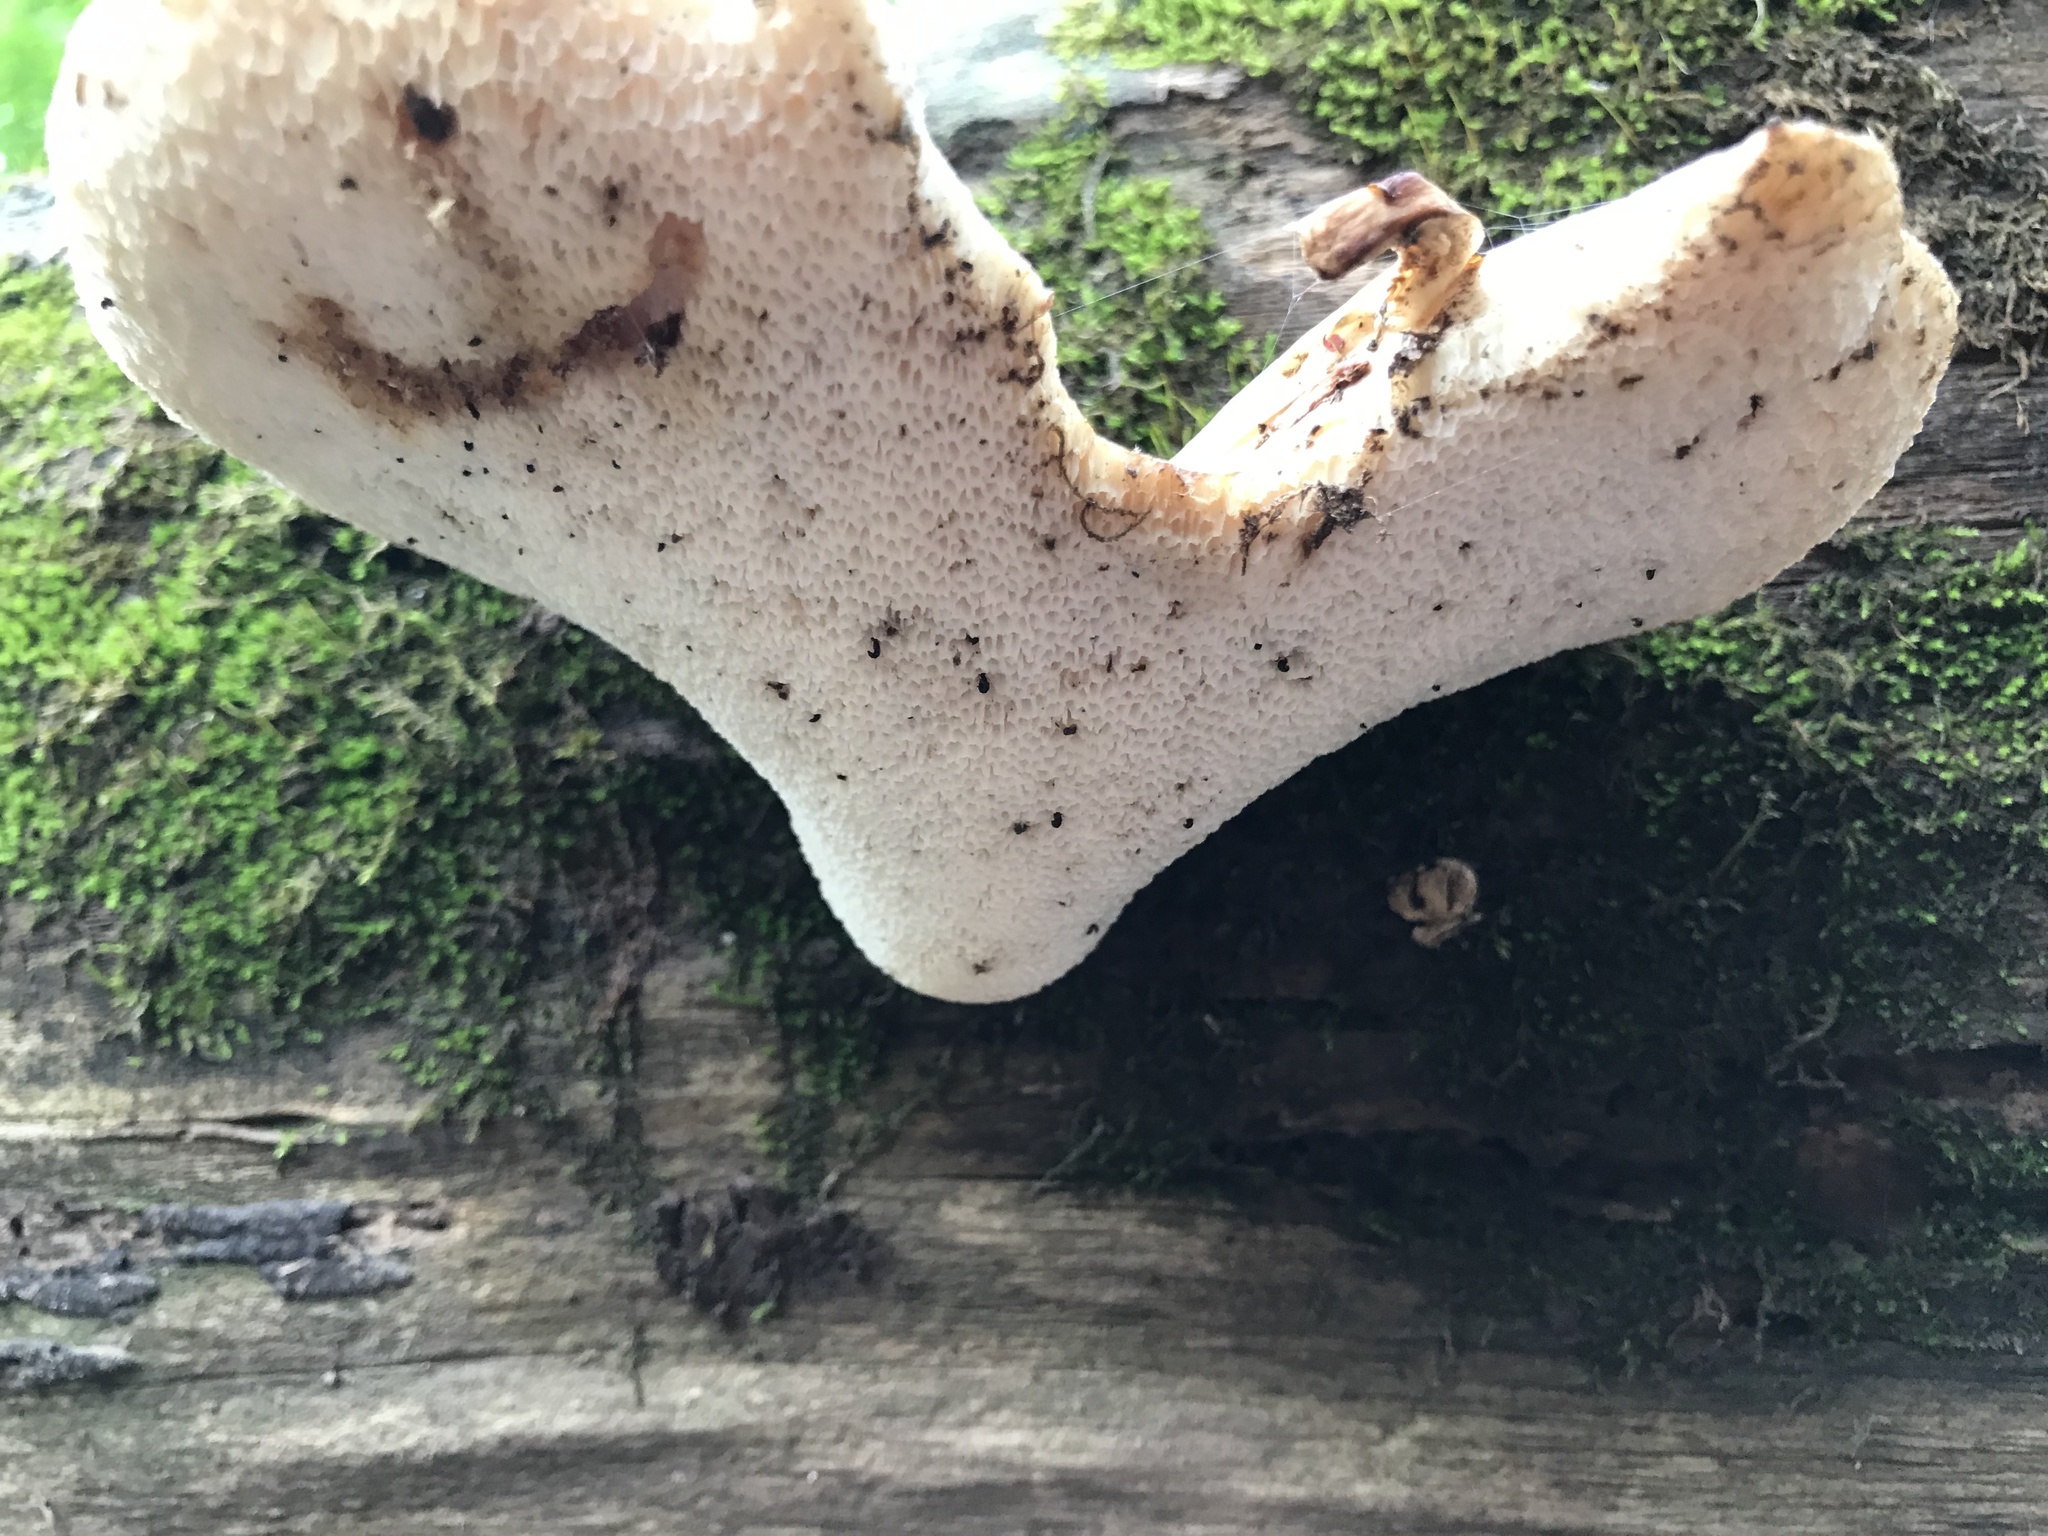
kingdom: Fungi
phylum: Basidiomycota
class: Agaricomycetes
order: Polyporales
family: Polyporaceae
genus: Cerioporus
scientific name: Cerioporus squamosus
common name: Dryad's saddle
